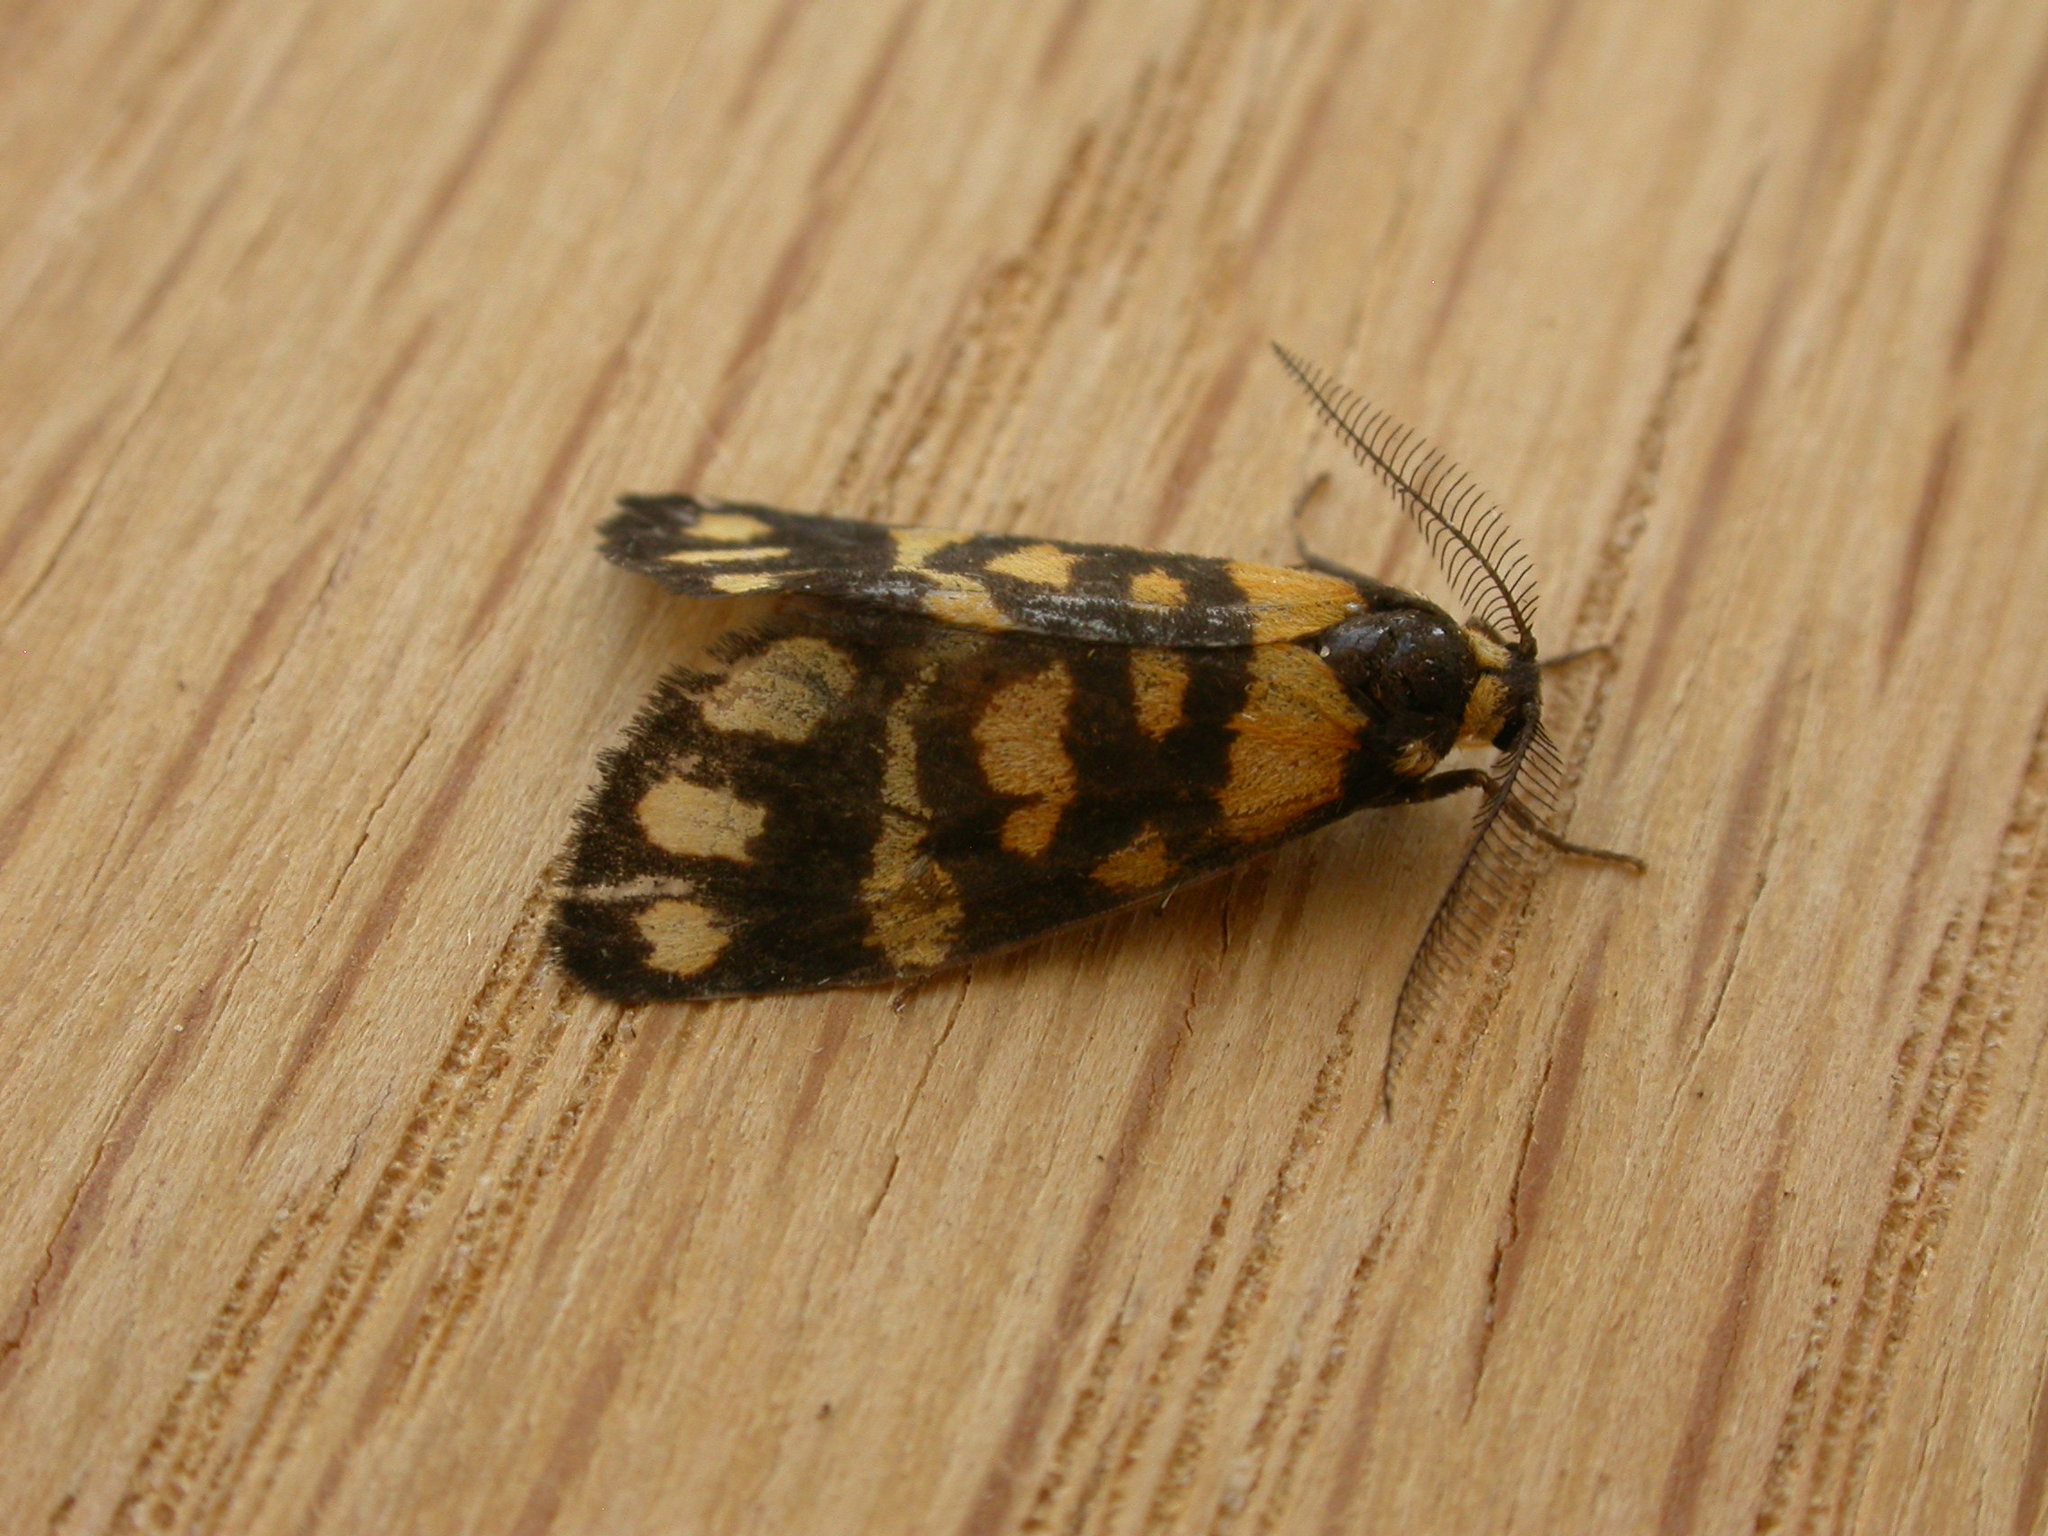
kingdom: Animalia
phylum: Arthropoda
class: Insecta
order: Lepidoptera
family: Erebidae
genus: Asura
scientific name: Asura lydia
